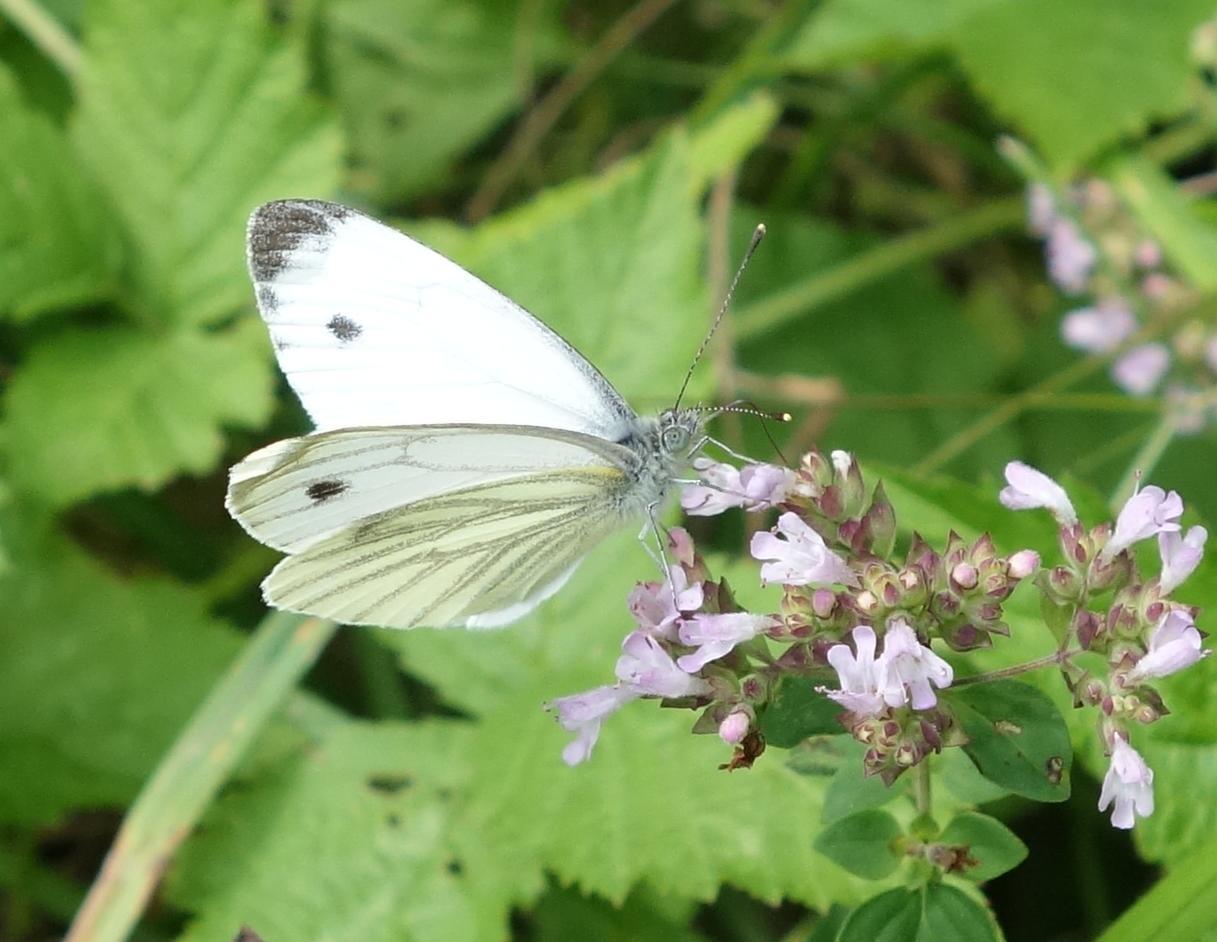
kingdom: Animalia
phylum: Arthropoda
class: Insecta
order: Lepidoptera
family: Pieridae
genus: Pieris
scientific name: Pieris napi
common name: Green-veined white
